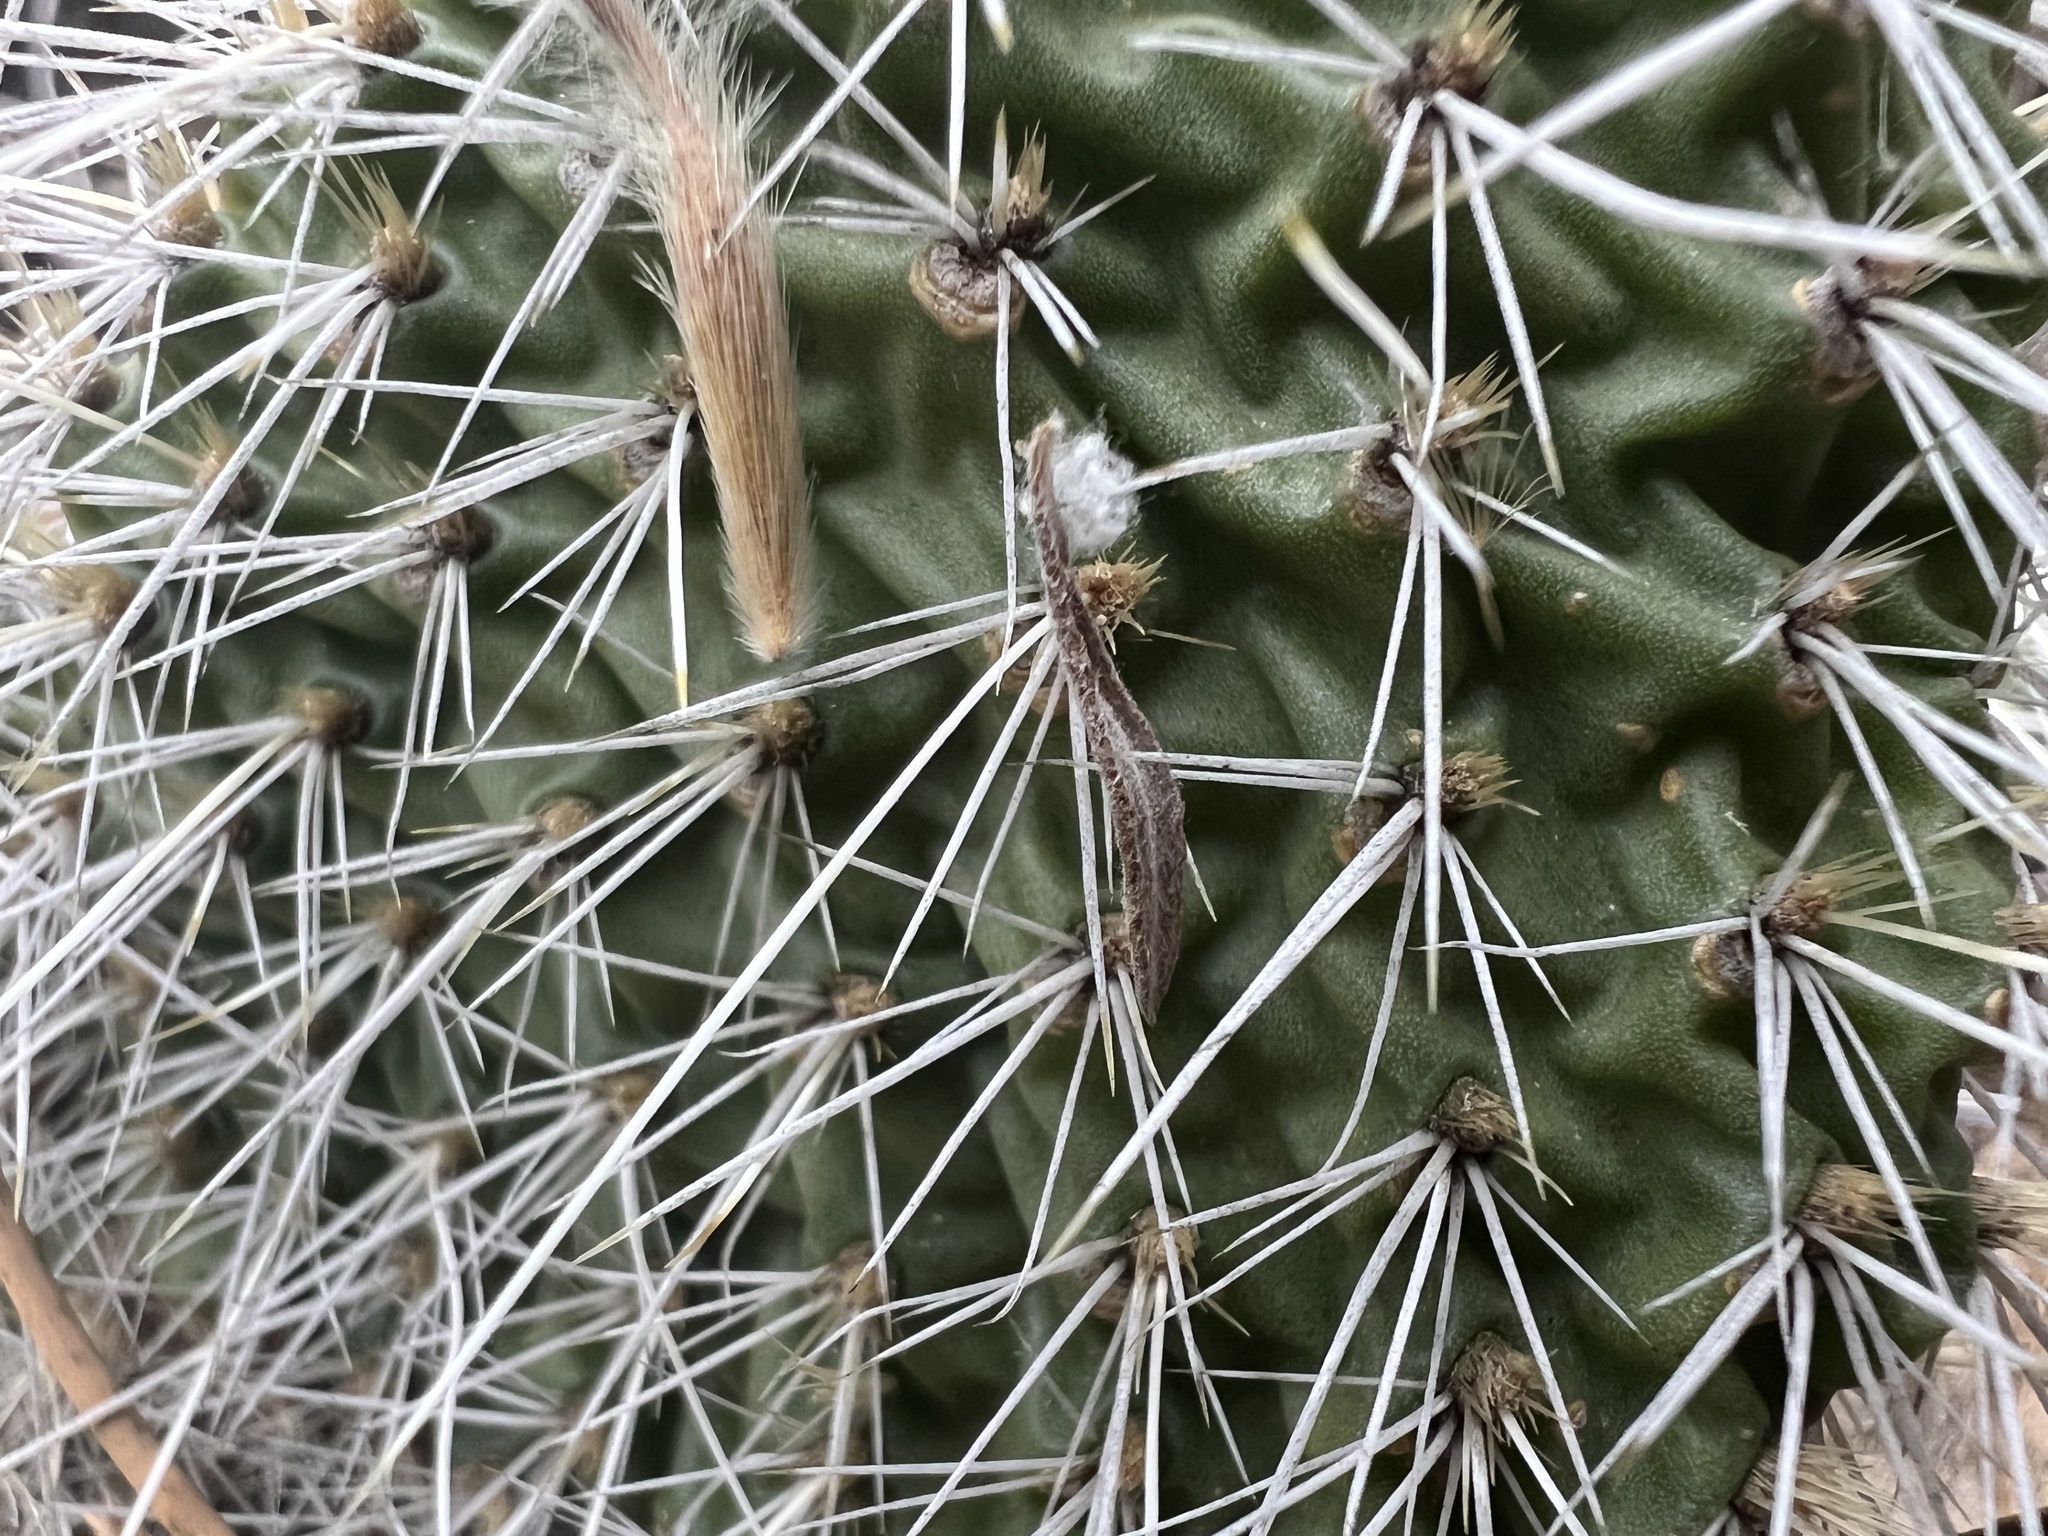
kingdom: Plantae
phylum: Tracheophyta
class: Magnoliopsida
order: Caryophyllales
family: Cactaceae
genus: Opuntia
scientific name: Opuntia polyacantha
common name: Plains prickly-pear
